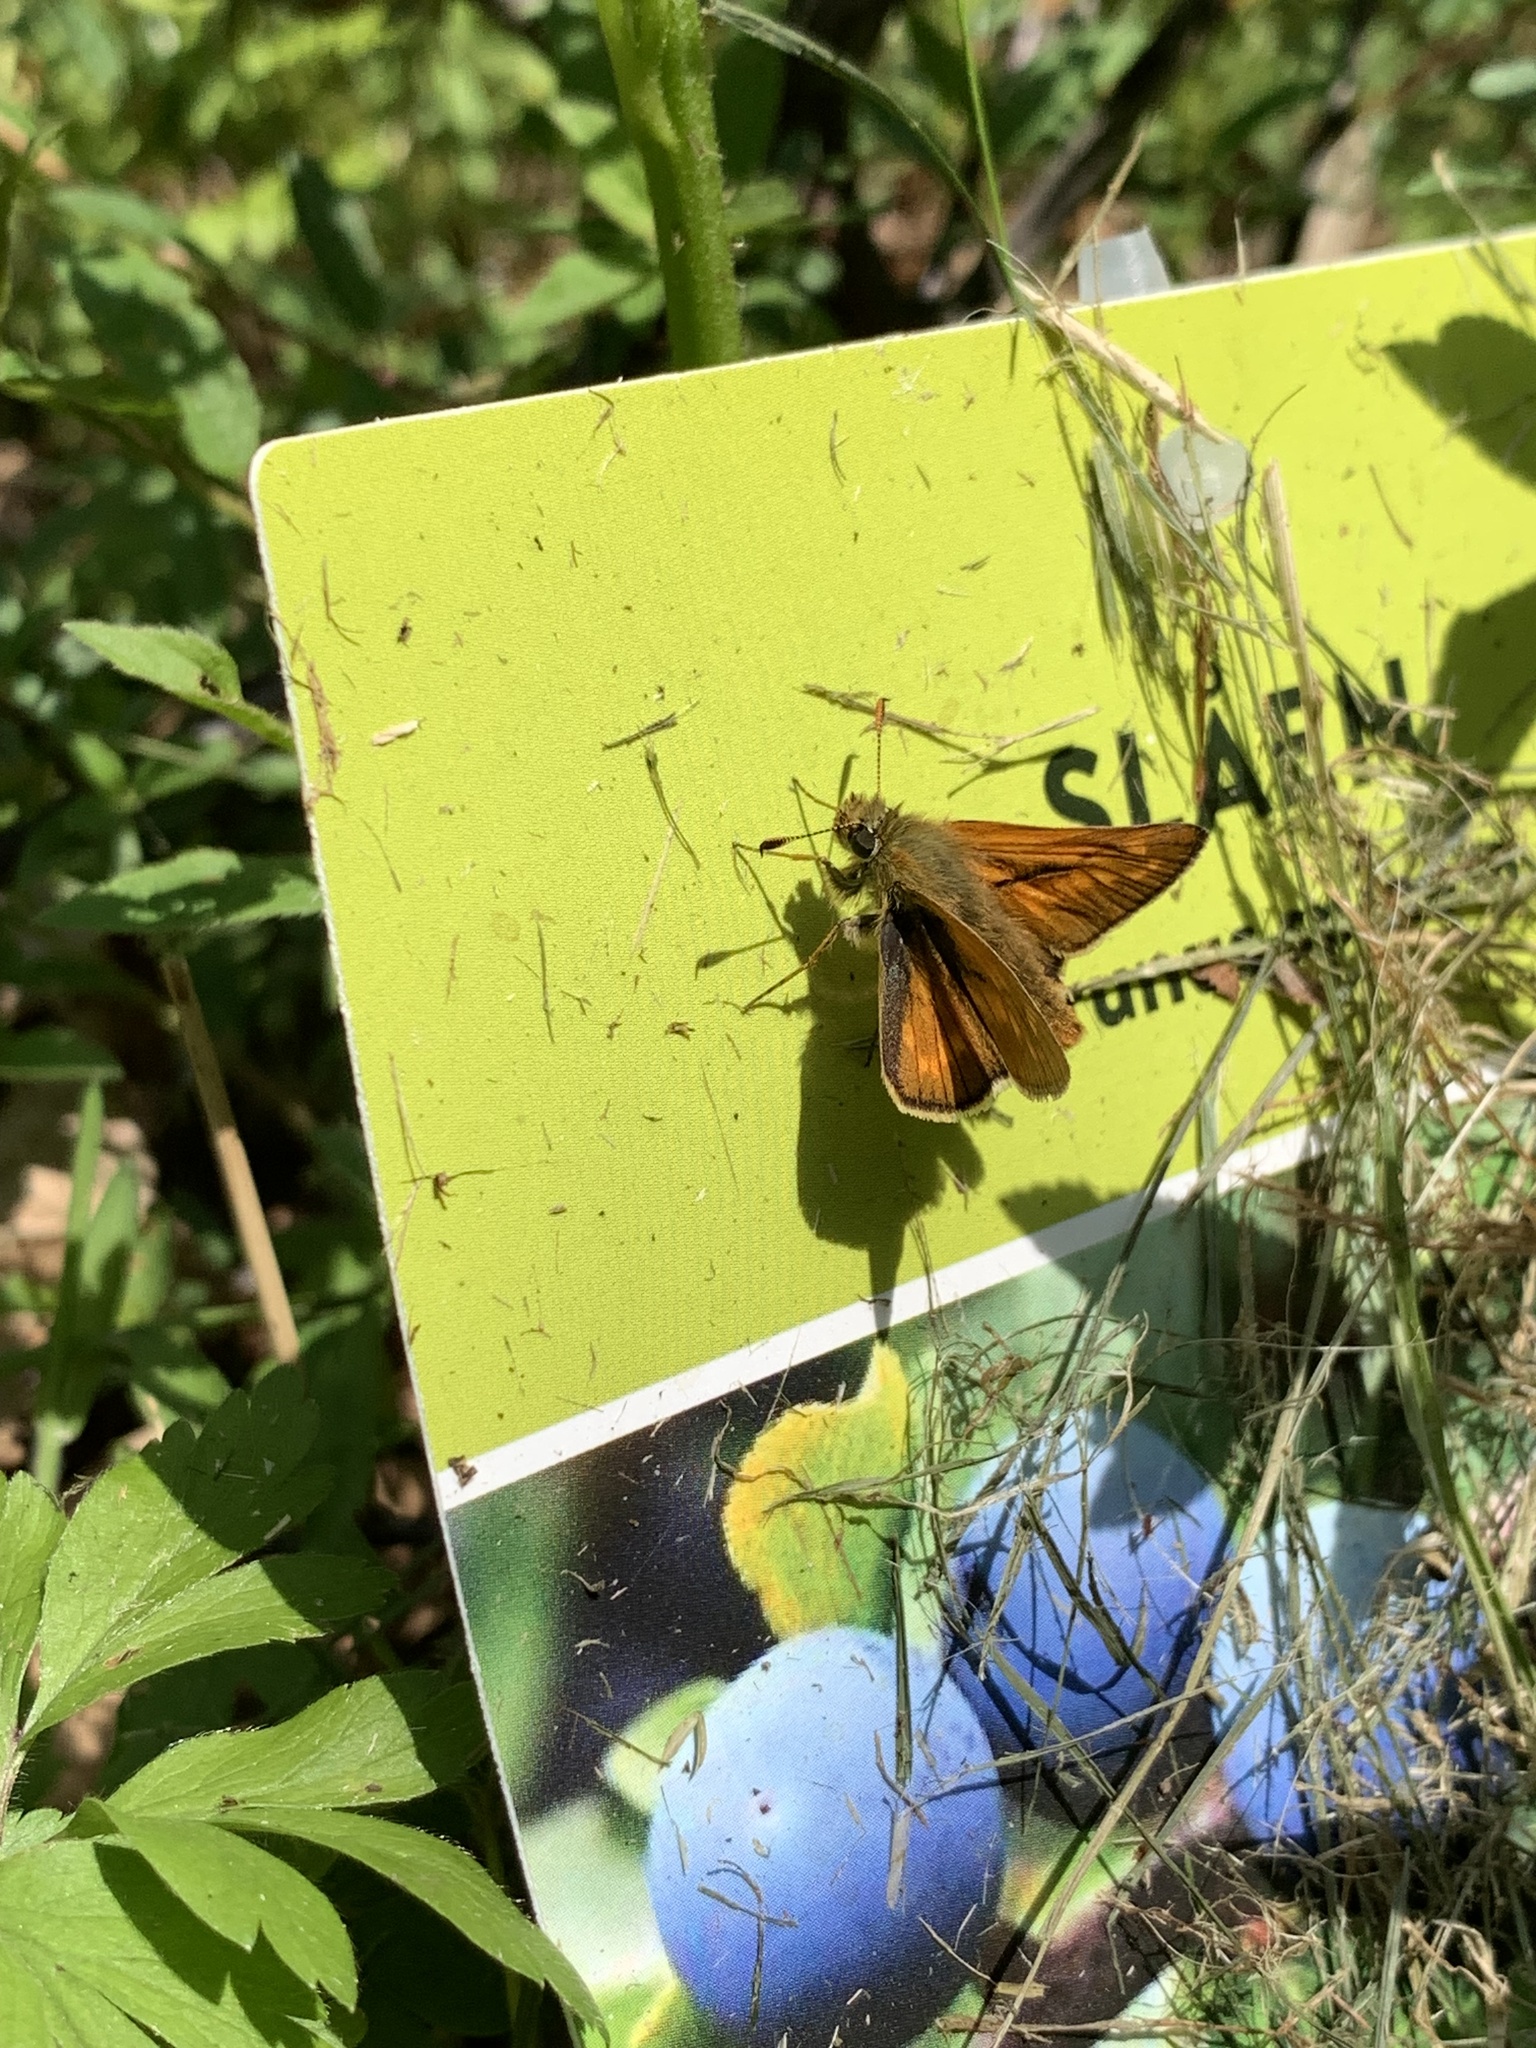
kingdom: Animalia
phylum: Arthropoda
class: Insecta
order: Lepidoptera
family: Hesperiidae
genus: Ochlodes
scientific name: Ochlodes venata
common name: Large skipper
